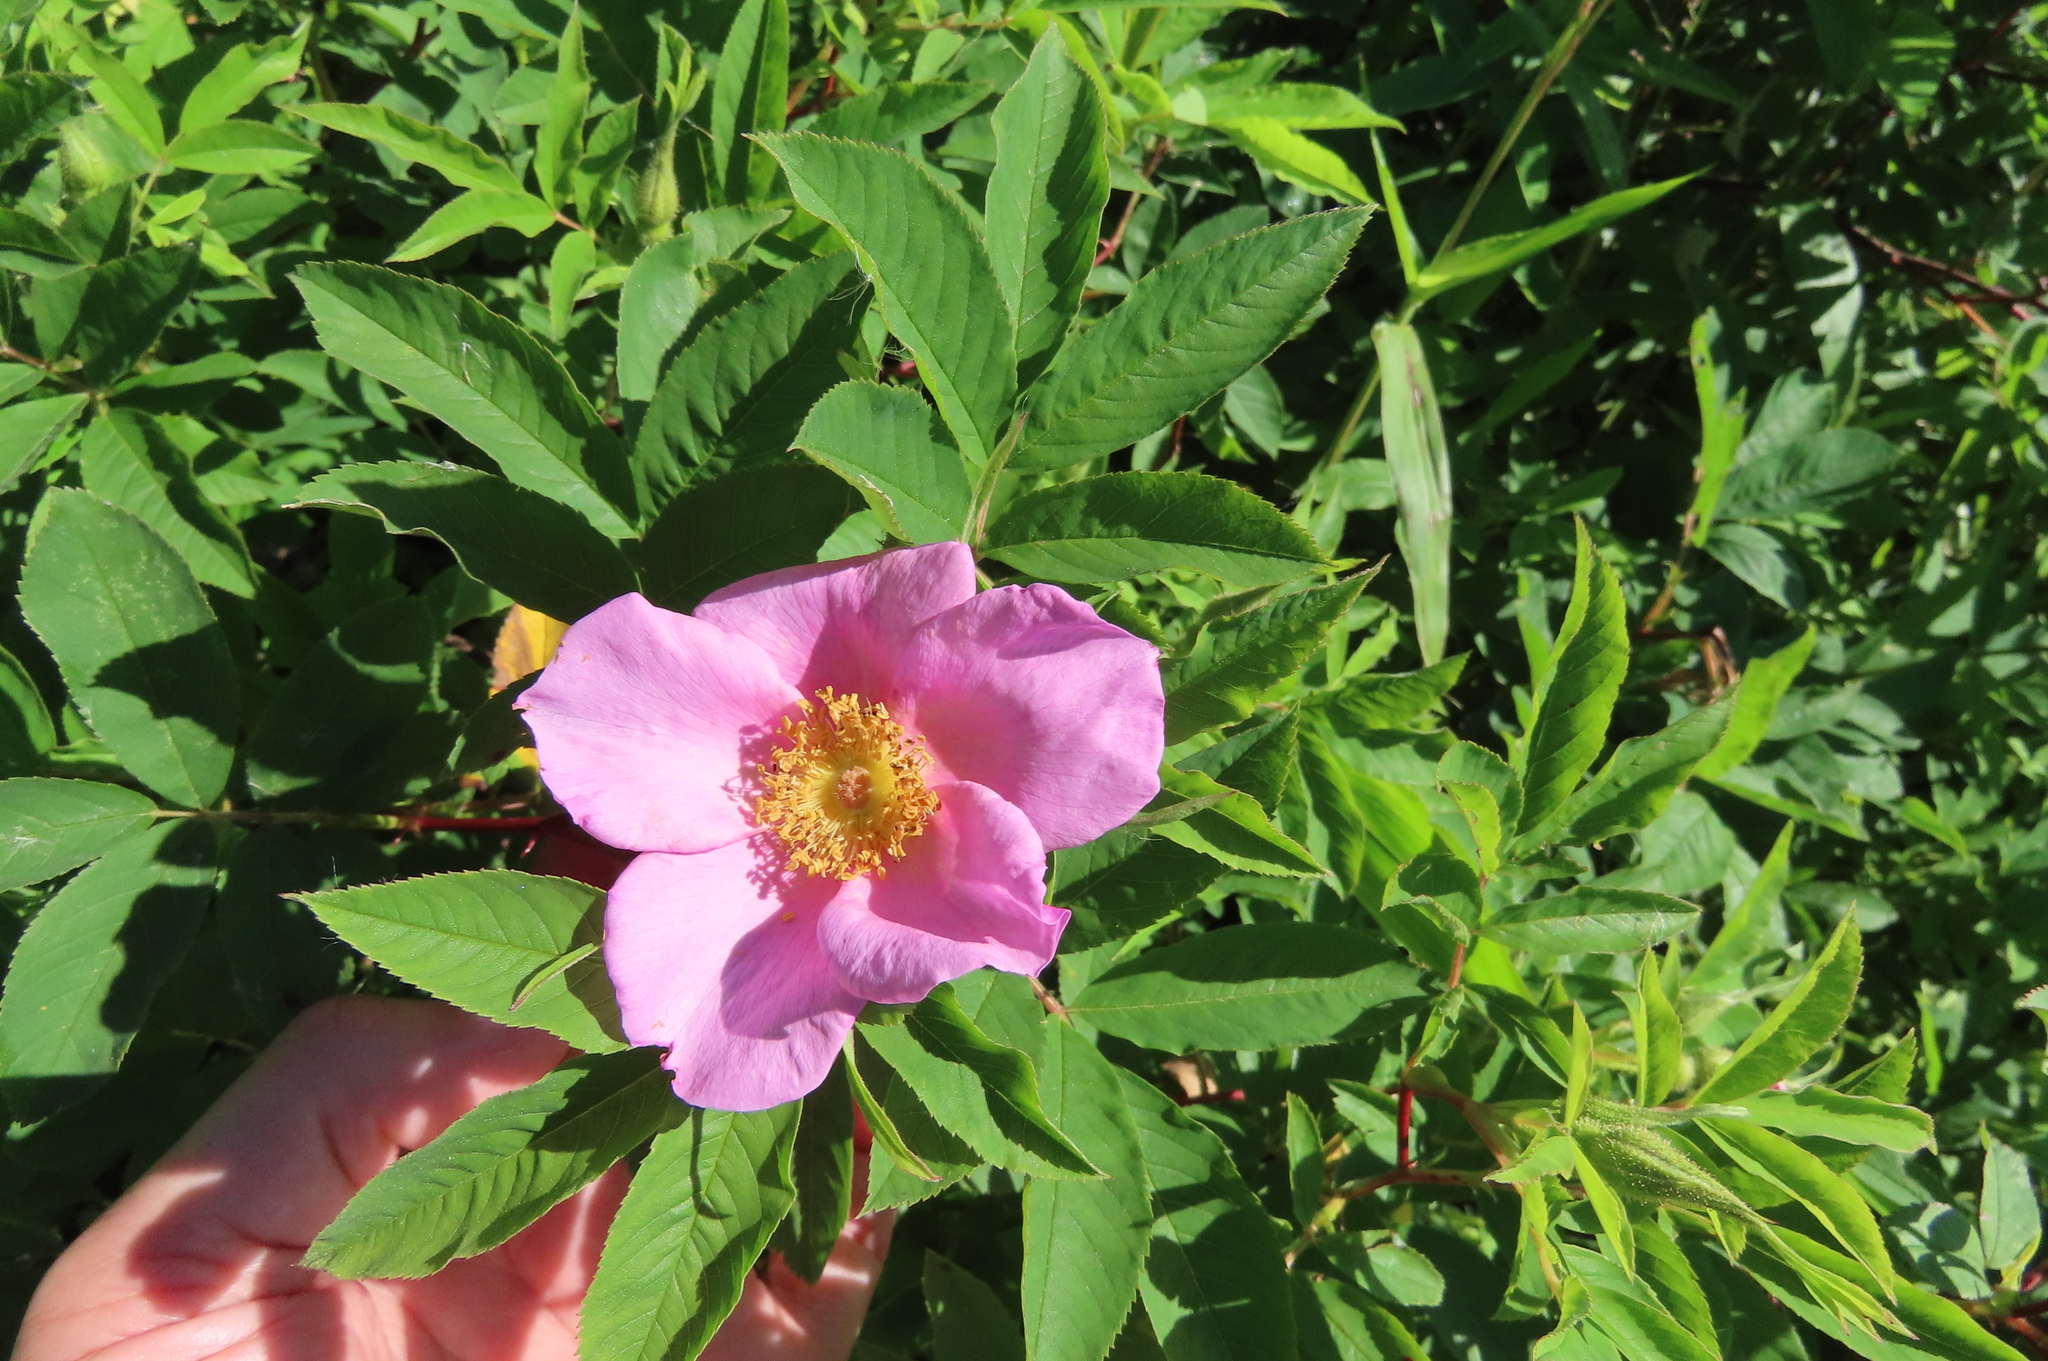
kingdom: Plantae
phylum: Tracheophyta
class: Magnoliopsida
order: Rosales
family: Rosaceae
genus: Rosa
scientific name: Rosa palustris
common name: Swamp rose
